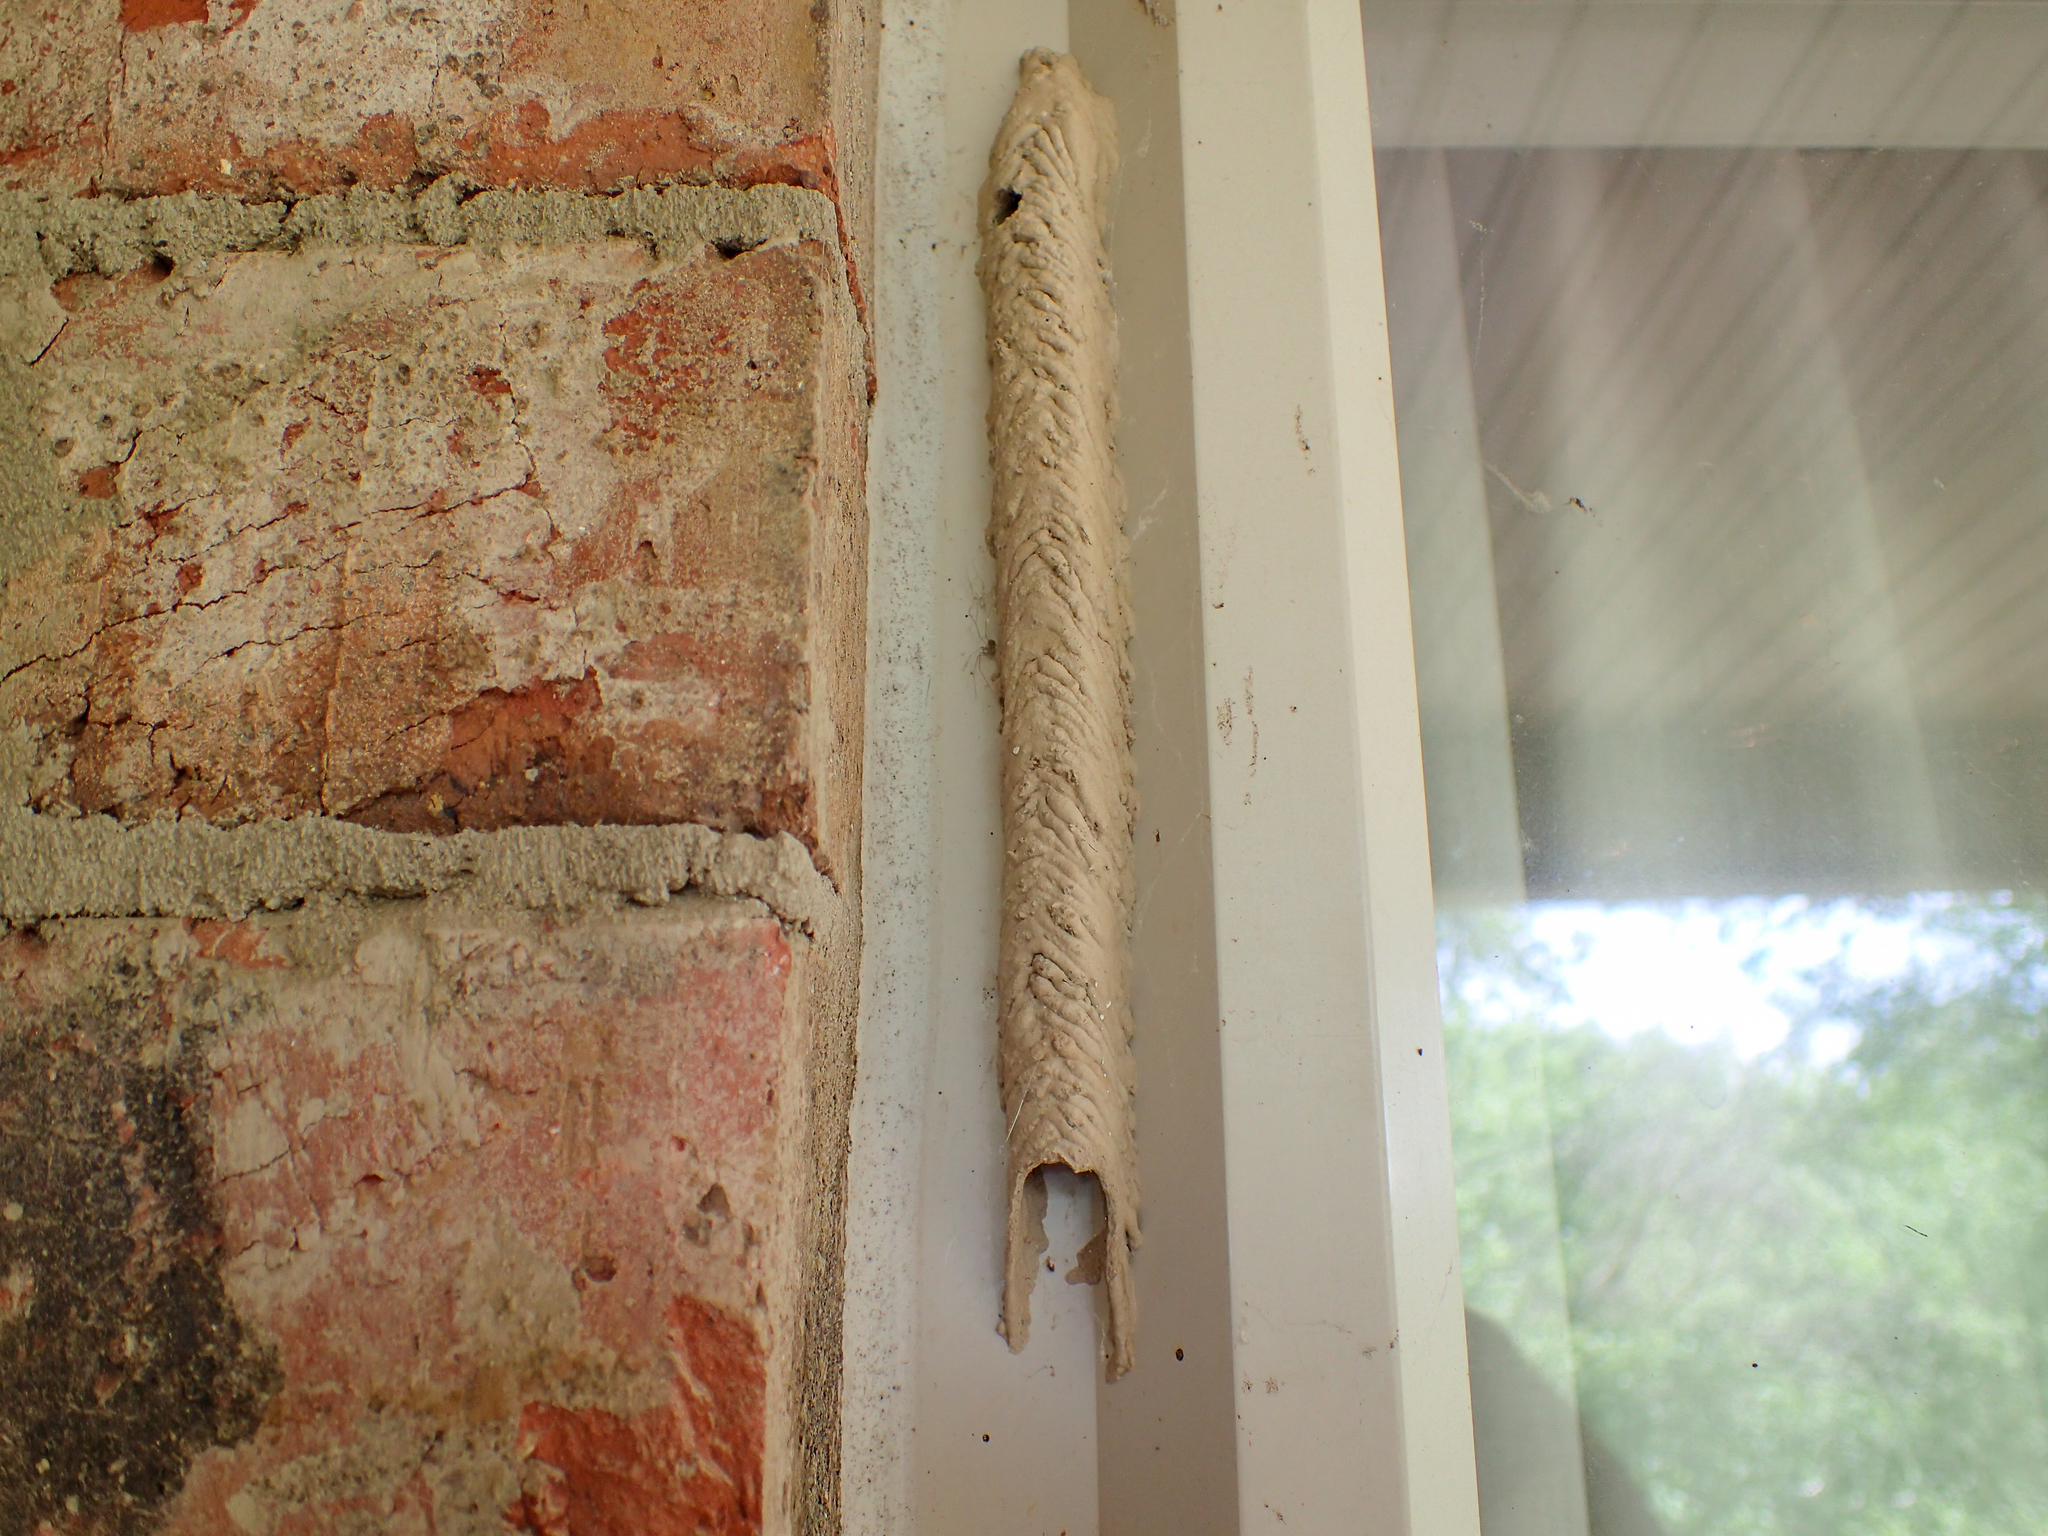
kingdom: Animalia
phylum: Arthropoda
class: Insecta
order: Hymenoptera
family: Crabronidae
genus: Trypoxylon
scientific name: Trypoxylon politum
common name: Organ-pipe mud-dauber wasp
